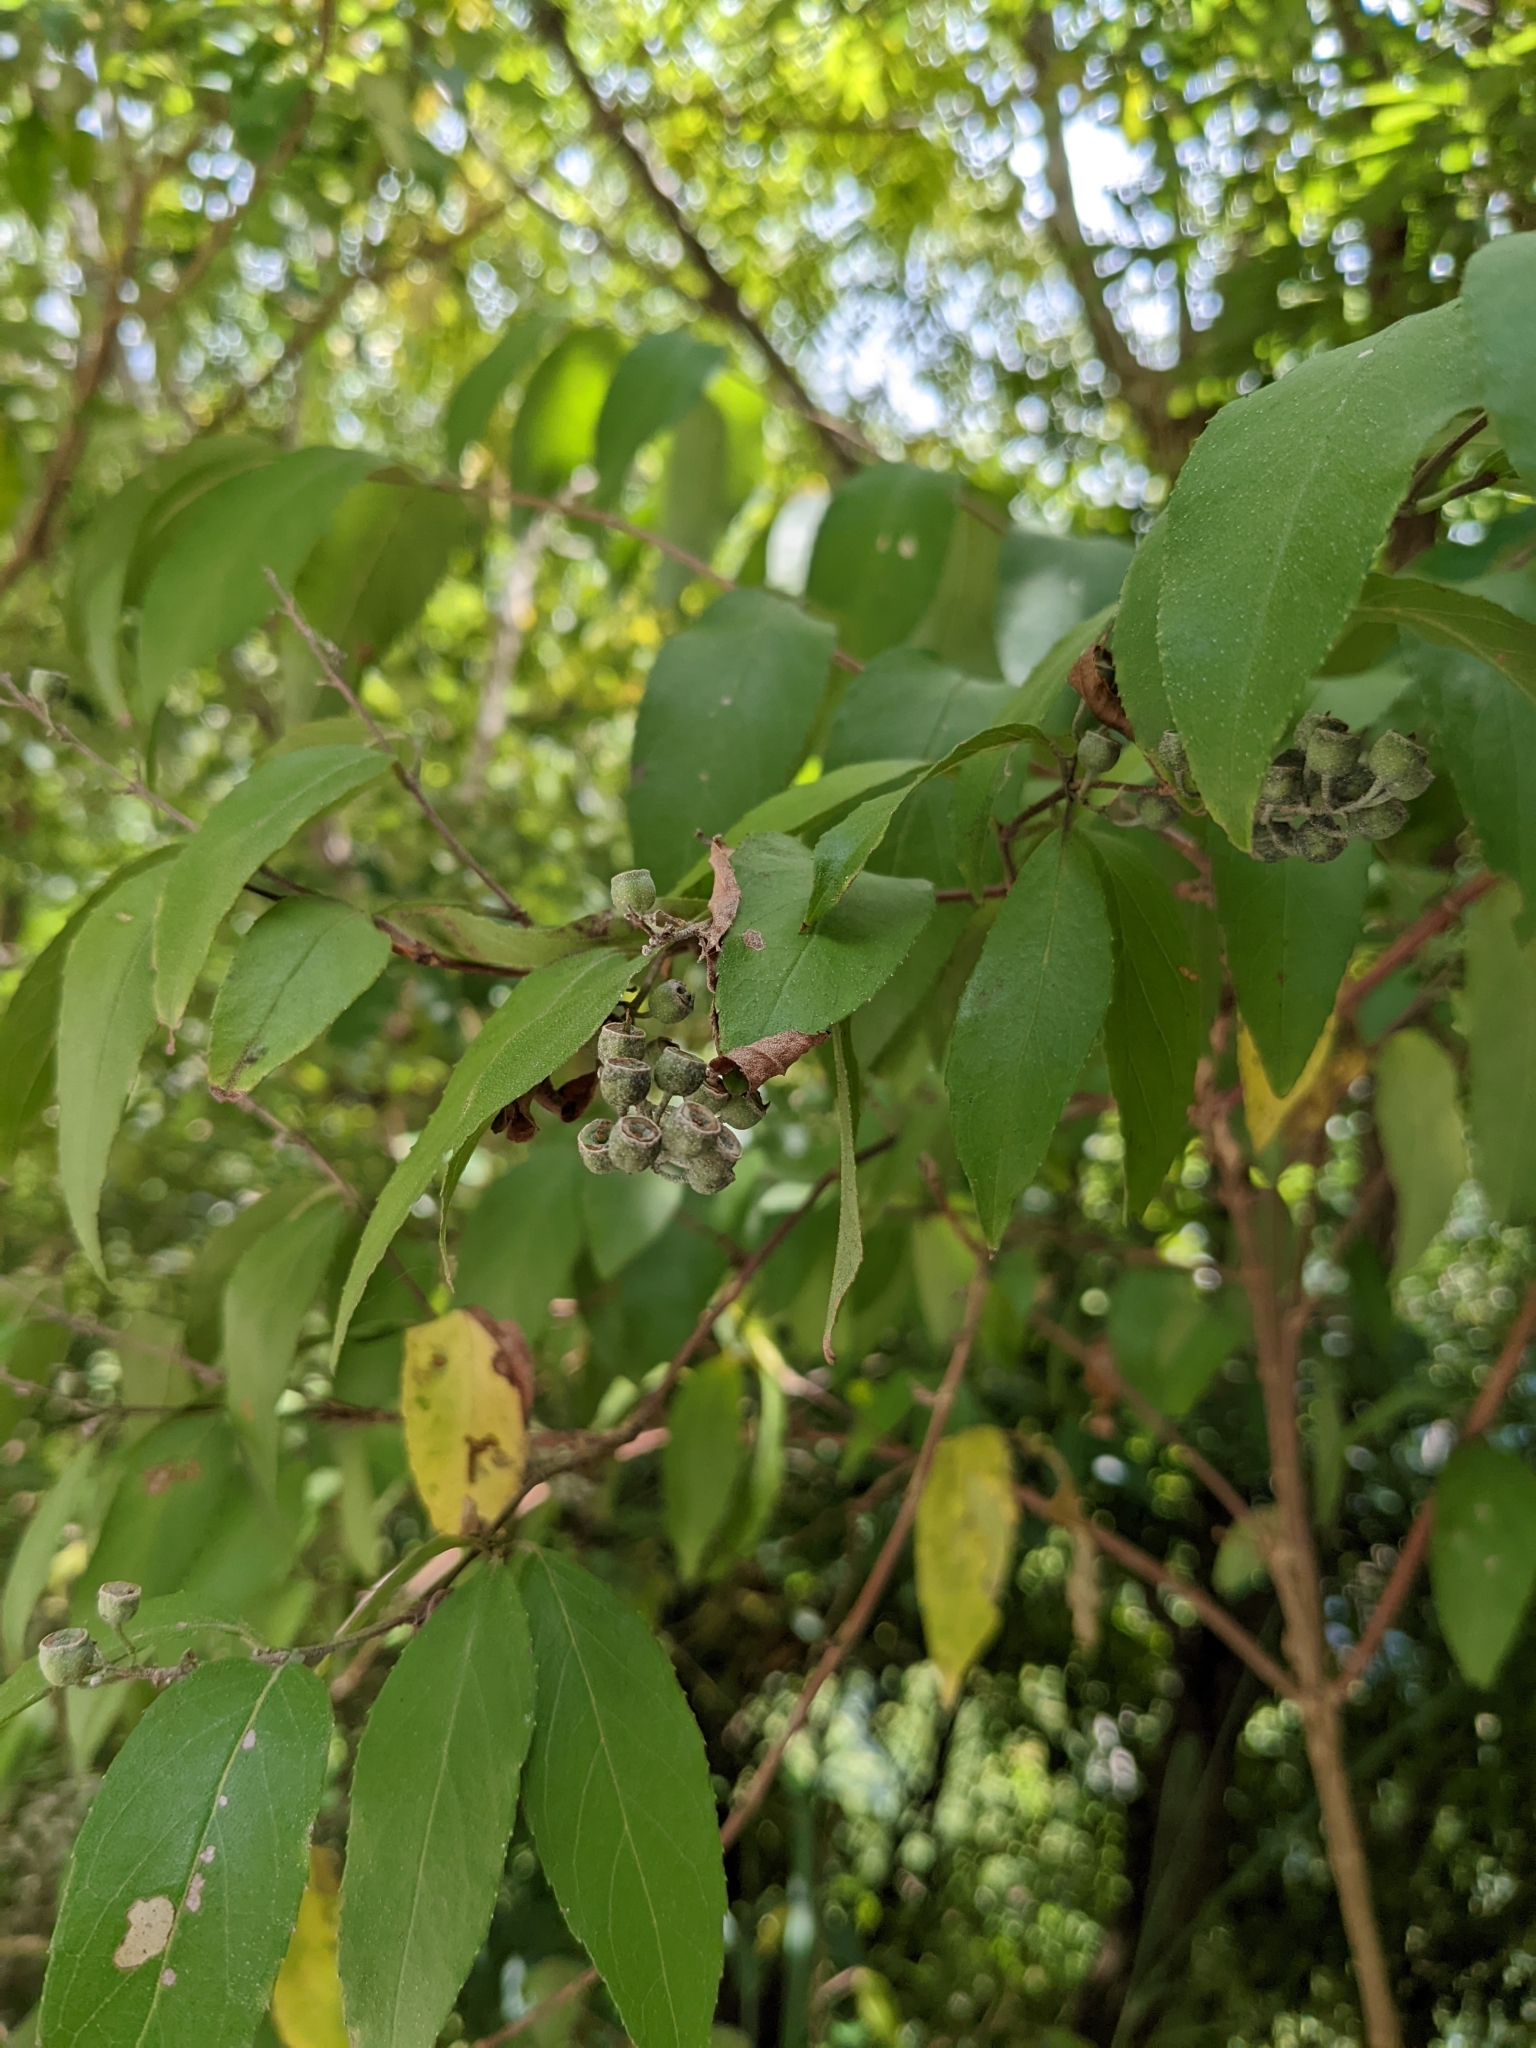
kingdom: Plantae
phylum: Tracheophyta
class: Magnoliopsida
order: Cornales
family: Hydrangeaceae
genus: Deutzia
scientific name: Deutzia pulchra
